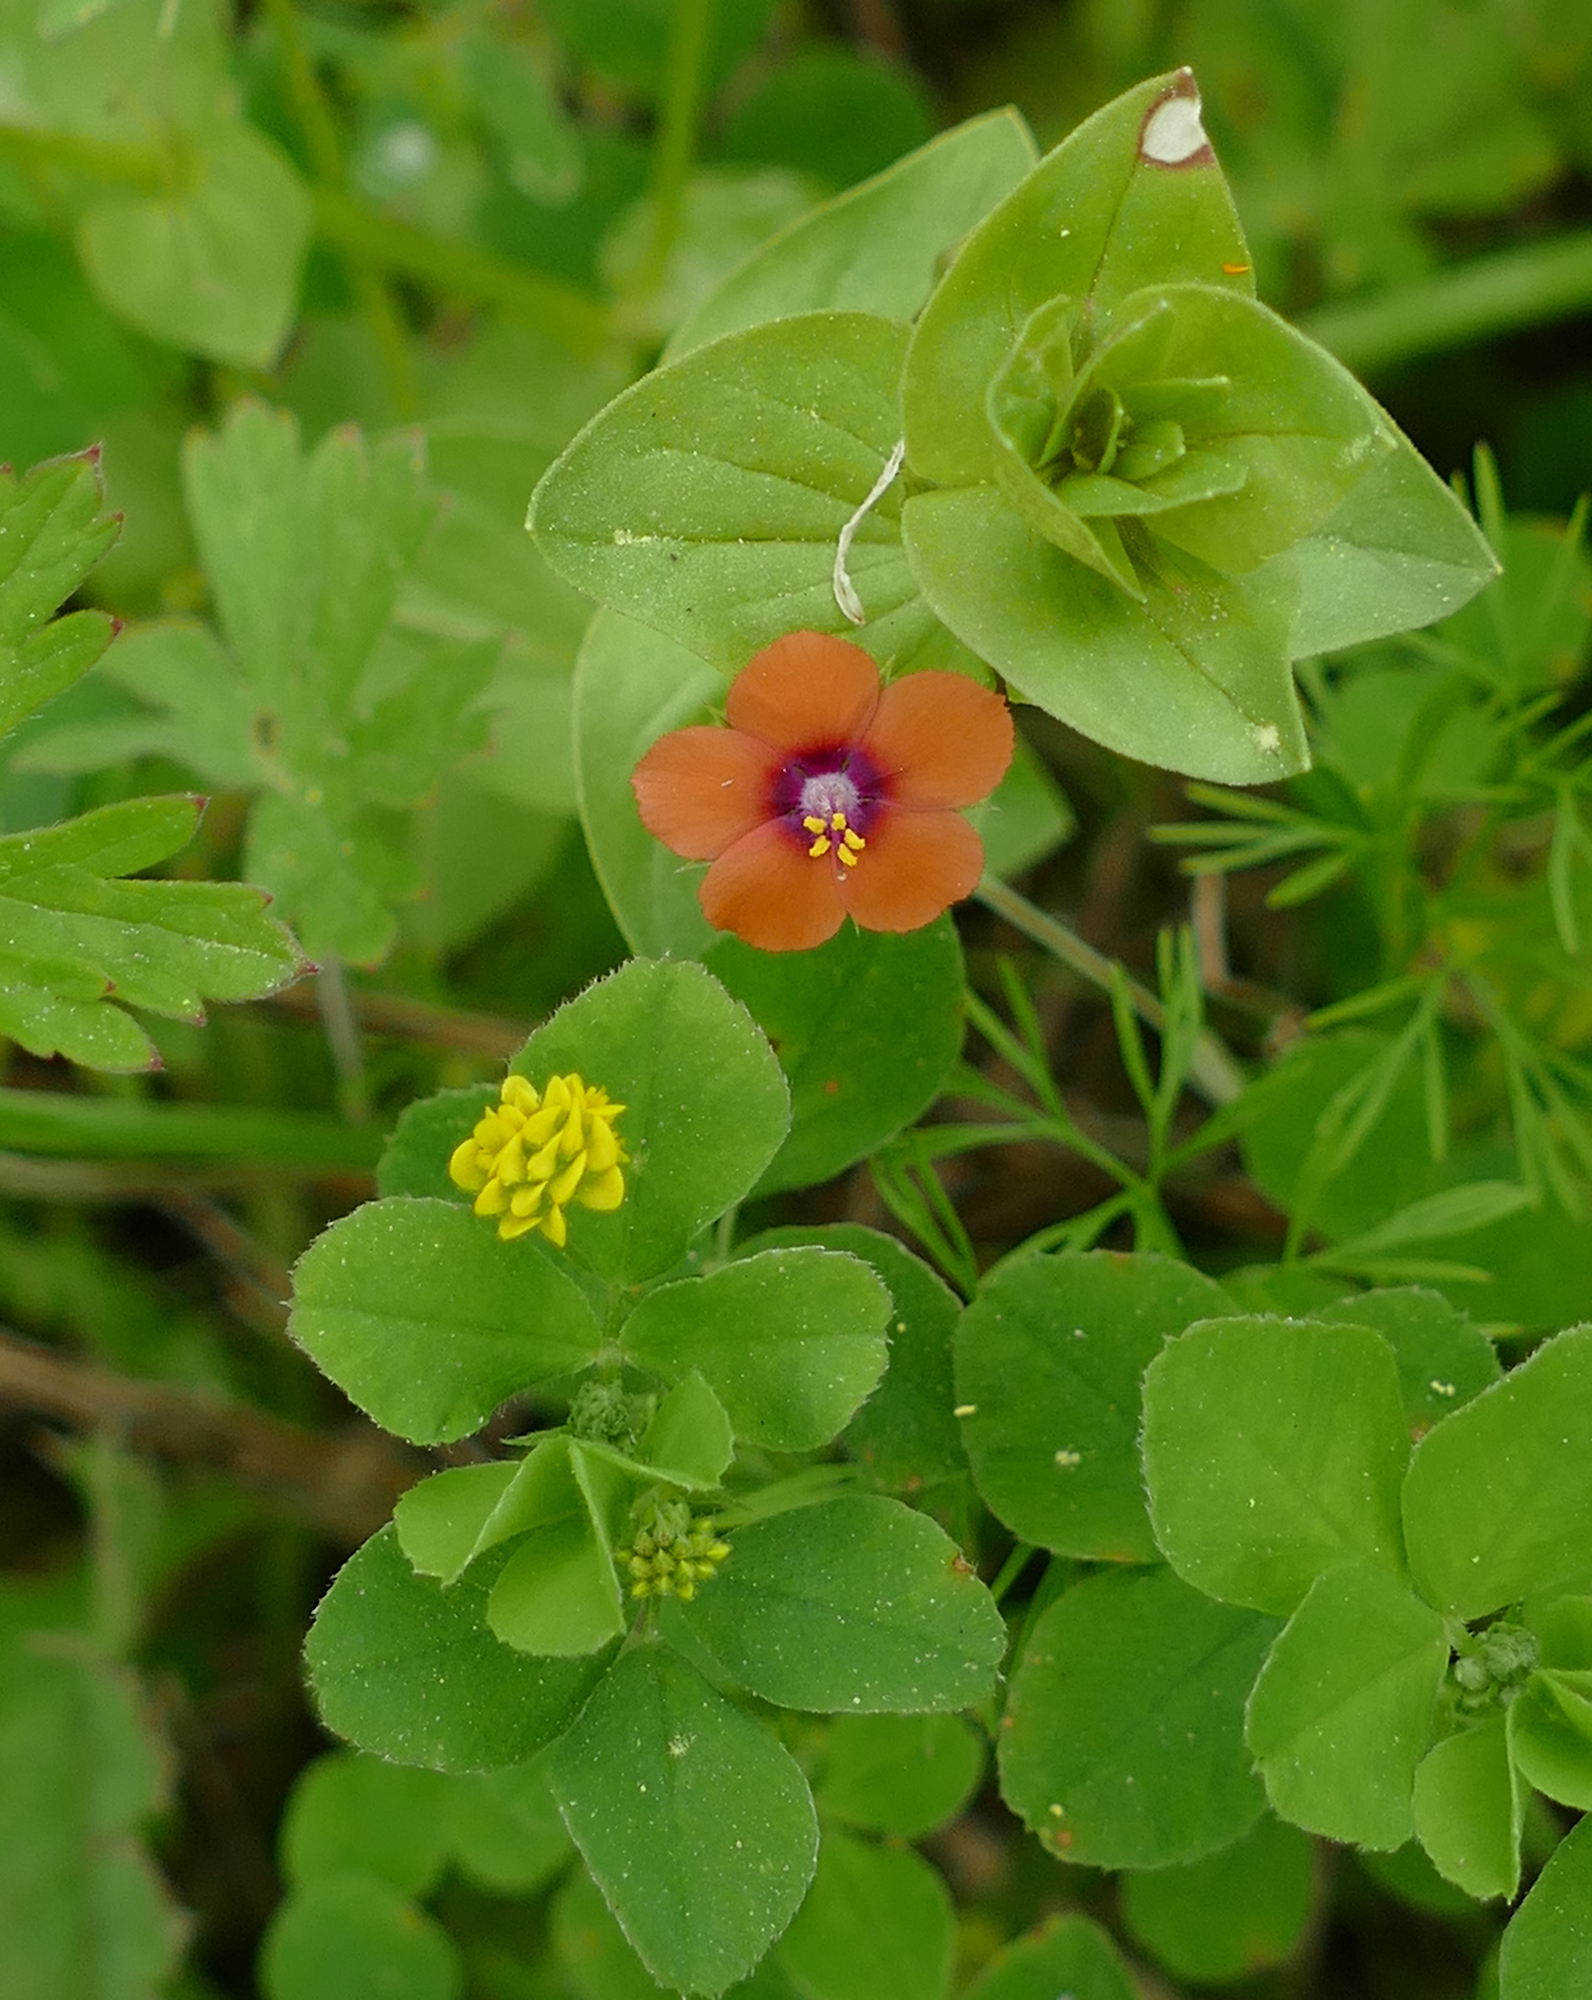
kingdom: Plantae
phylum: Tracheophyta
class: Magnoliopsida
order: Ericales
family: Primulaceae
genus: Lysimachia
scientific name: Lysimachia arvensis
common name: Scarlet pimpernel
